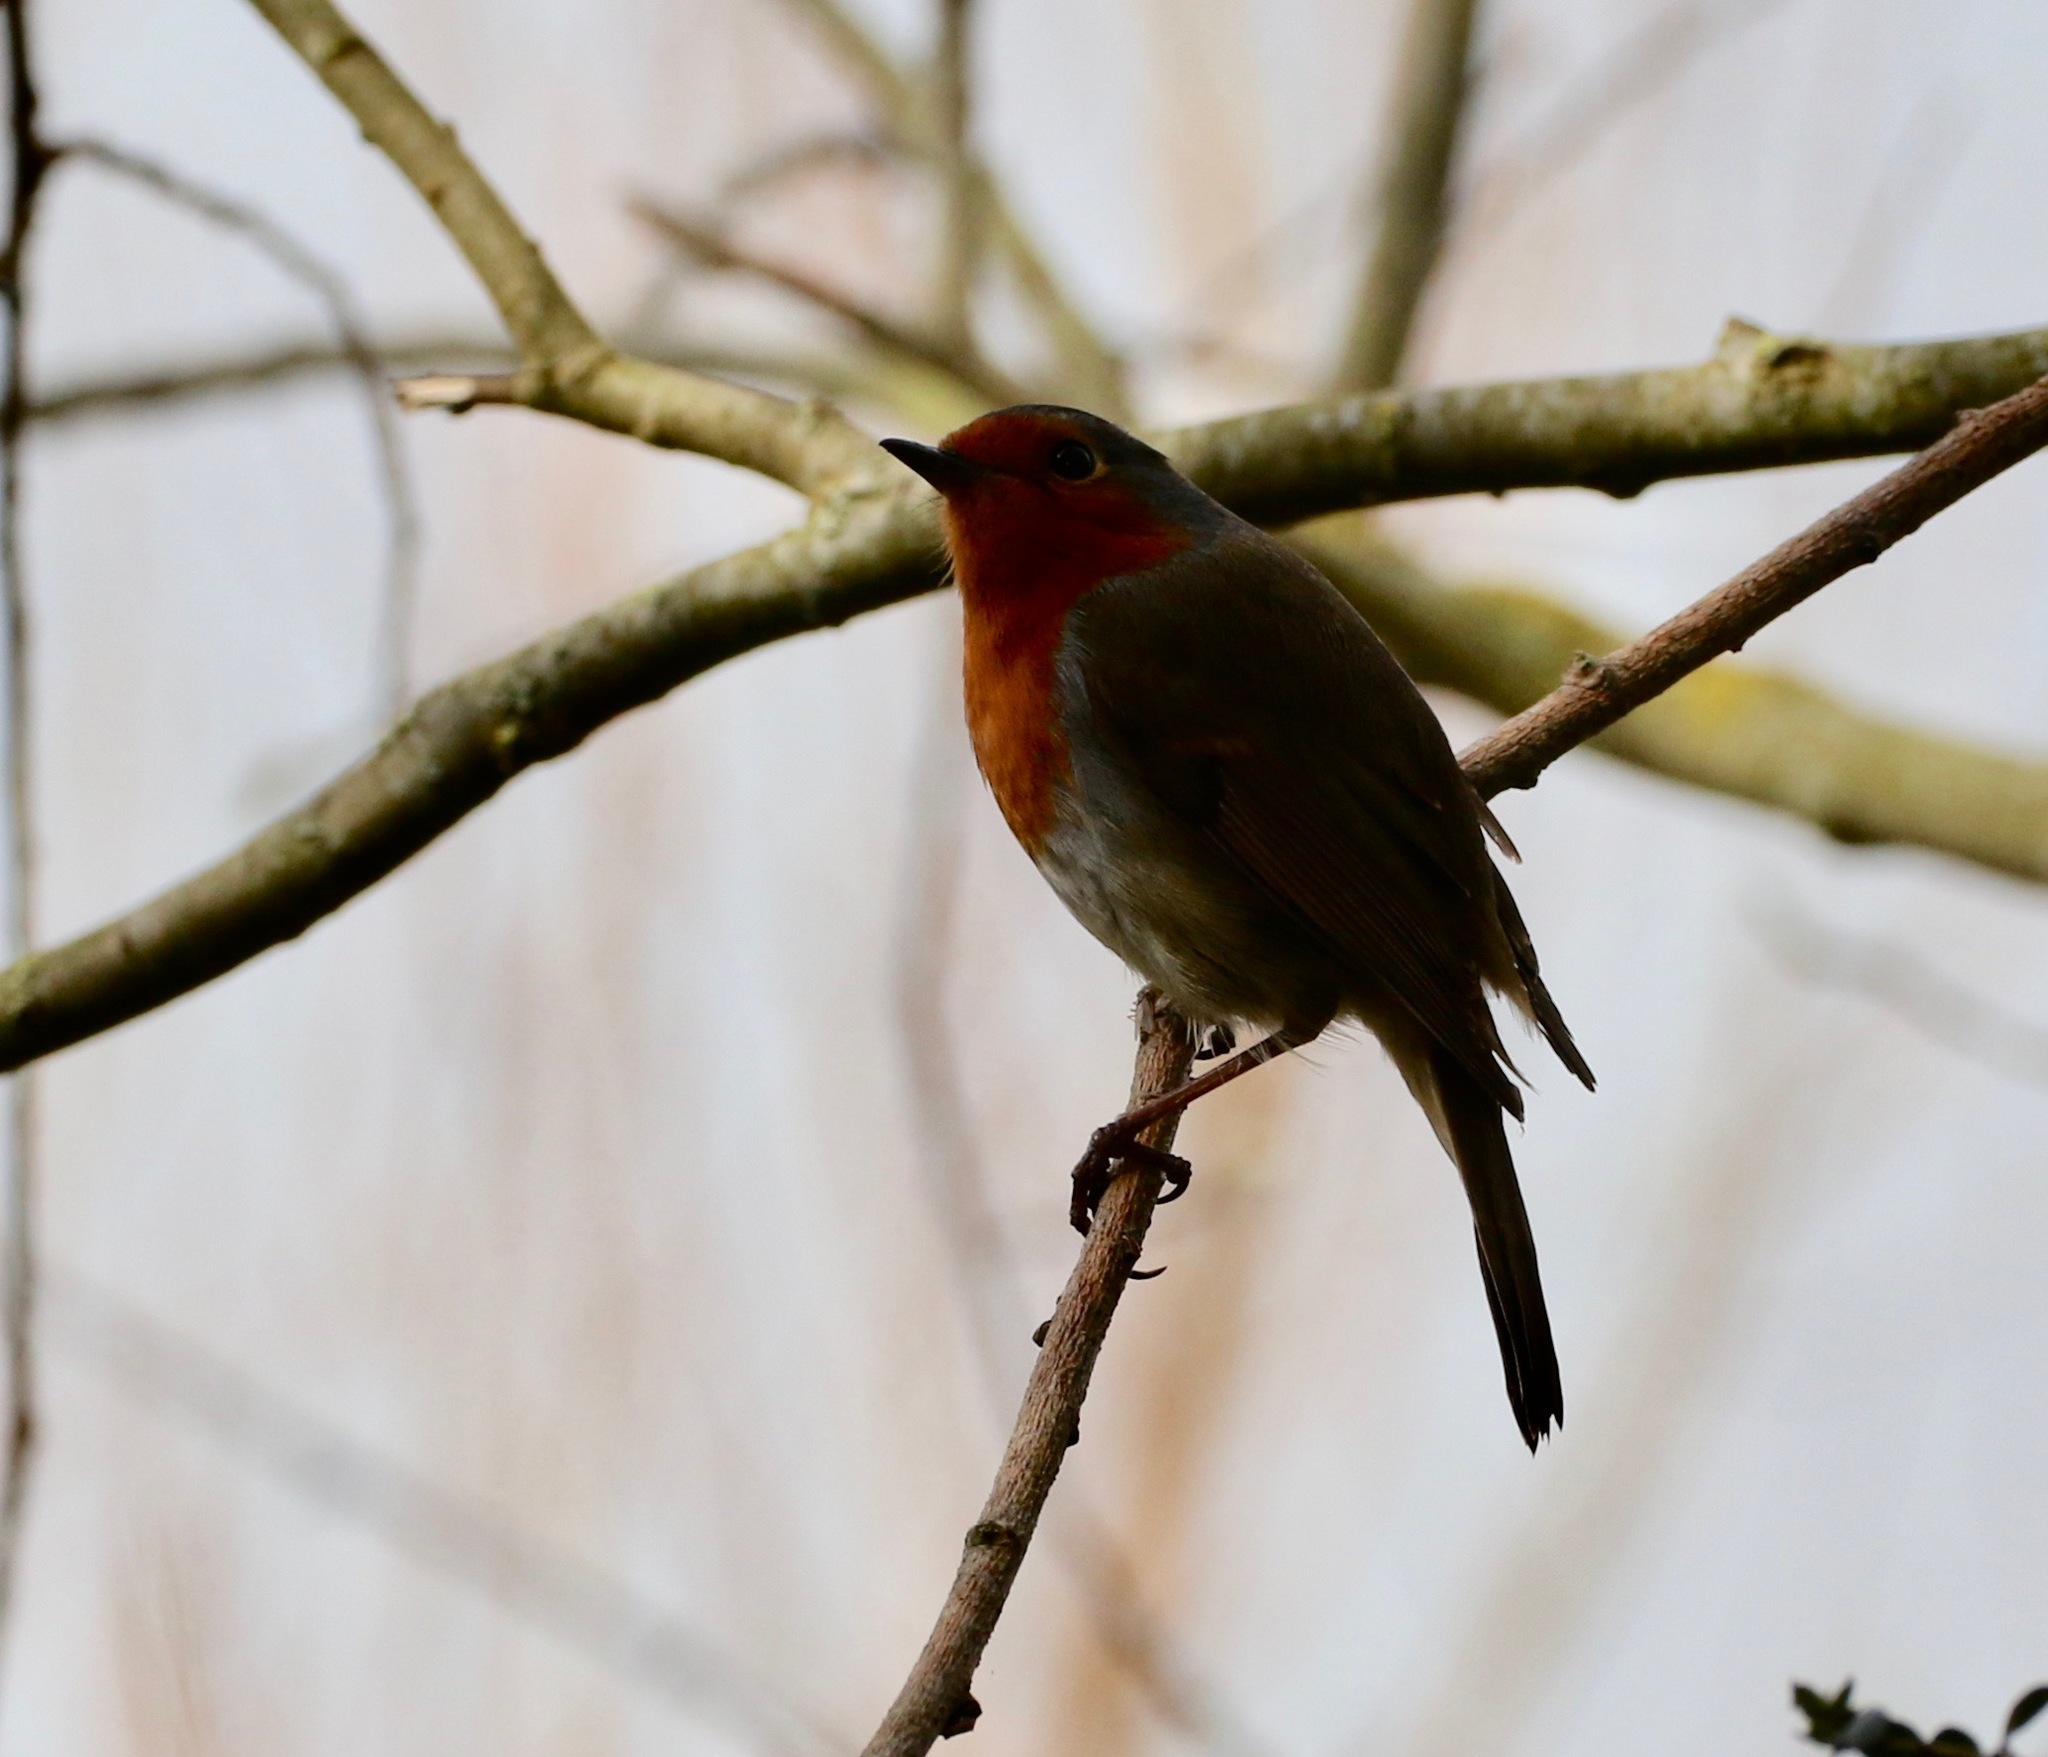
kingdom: Animalia
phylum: Chordata
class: Aves
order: Passeriformes
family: Muscicapidae
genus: Erithacus
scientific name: Erithacus rubecula
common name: European robin
